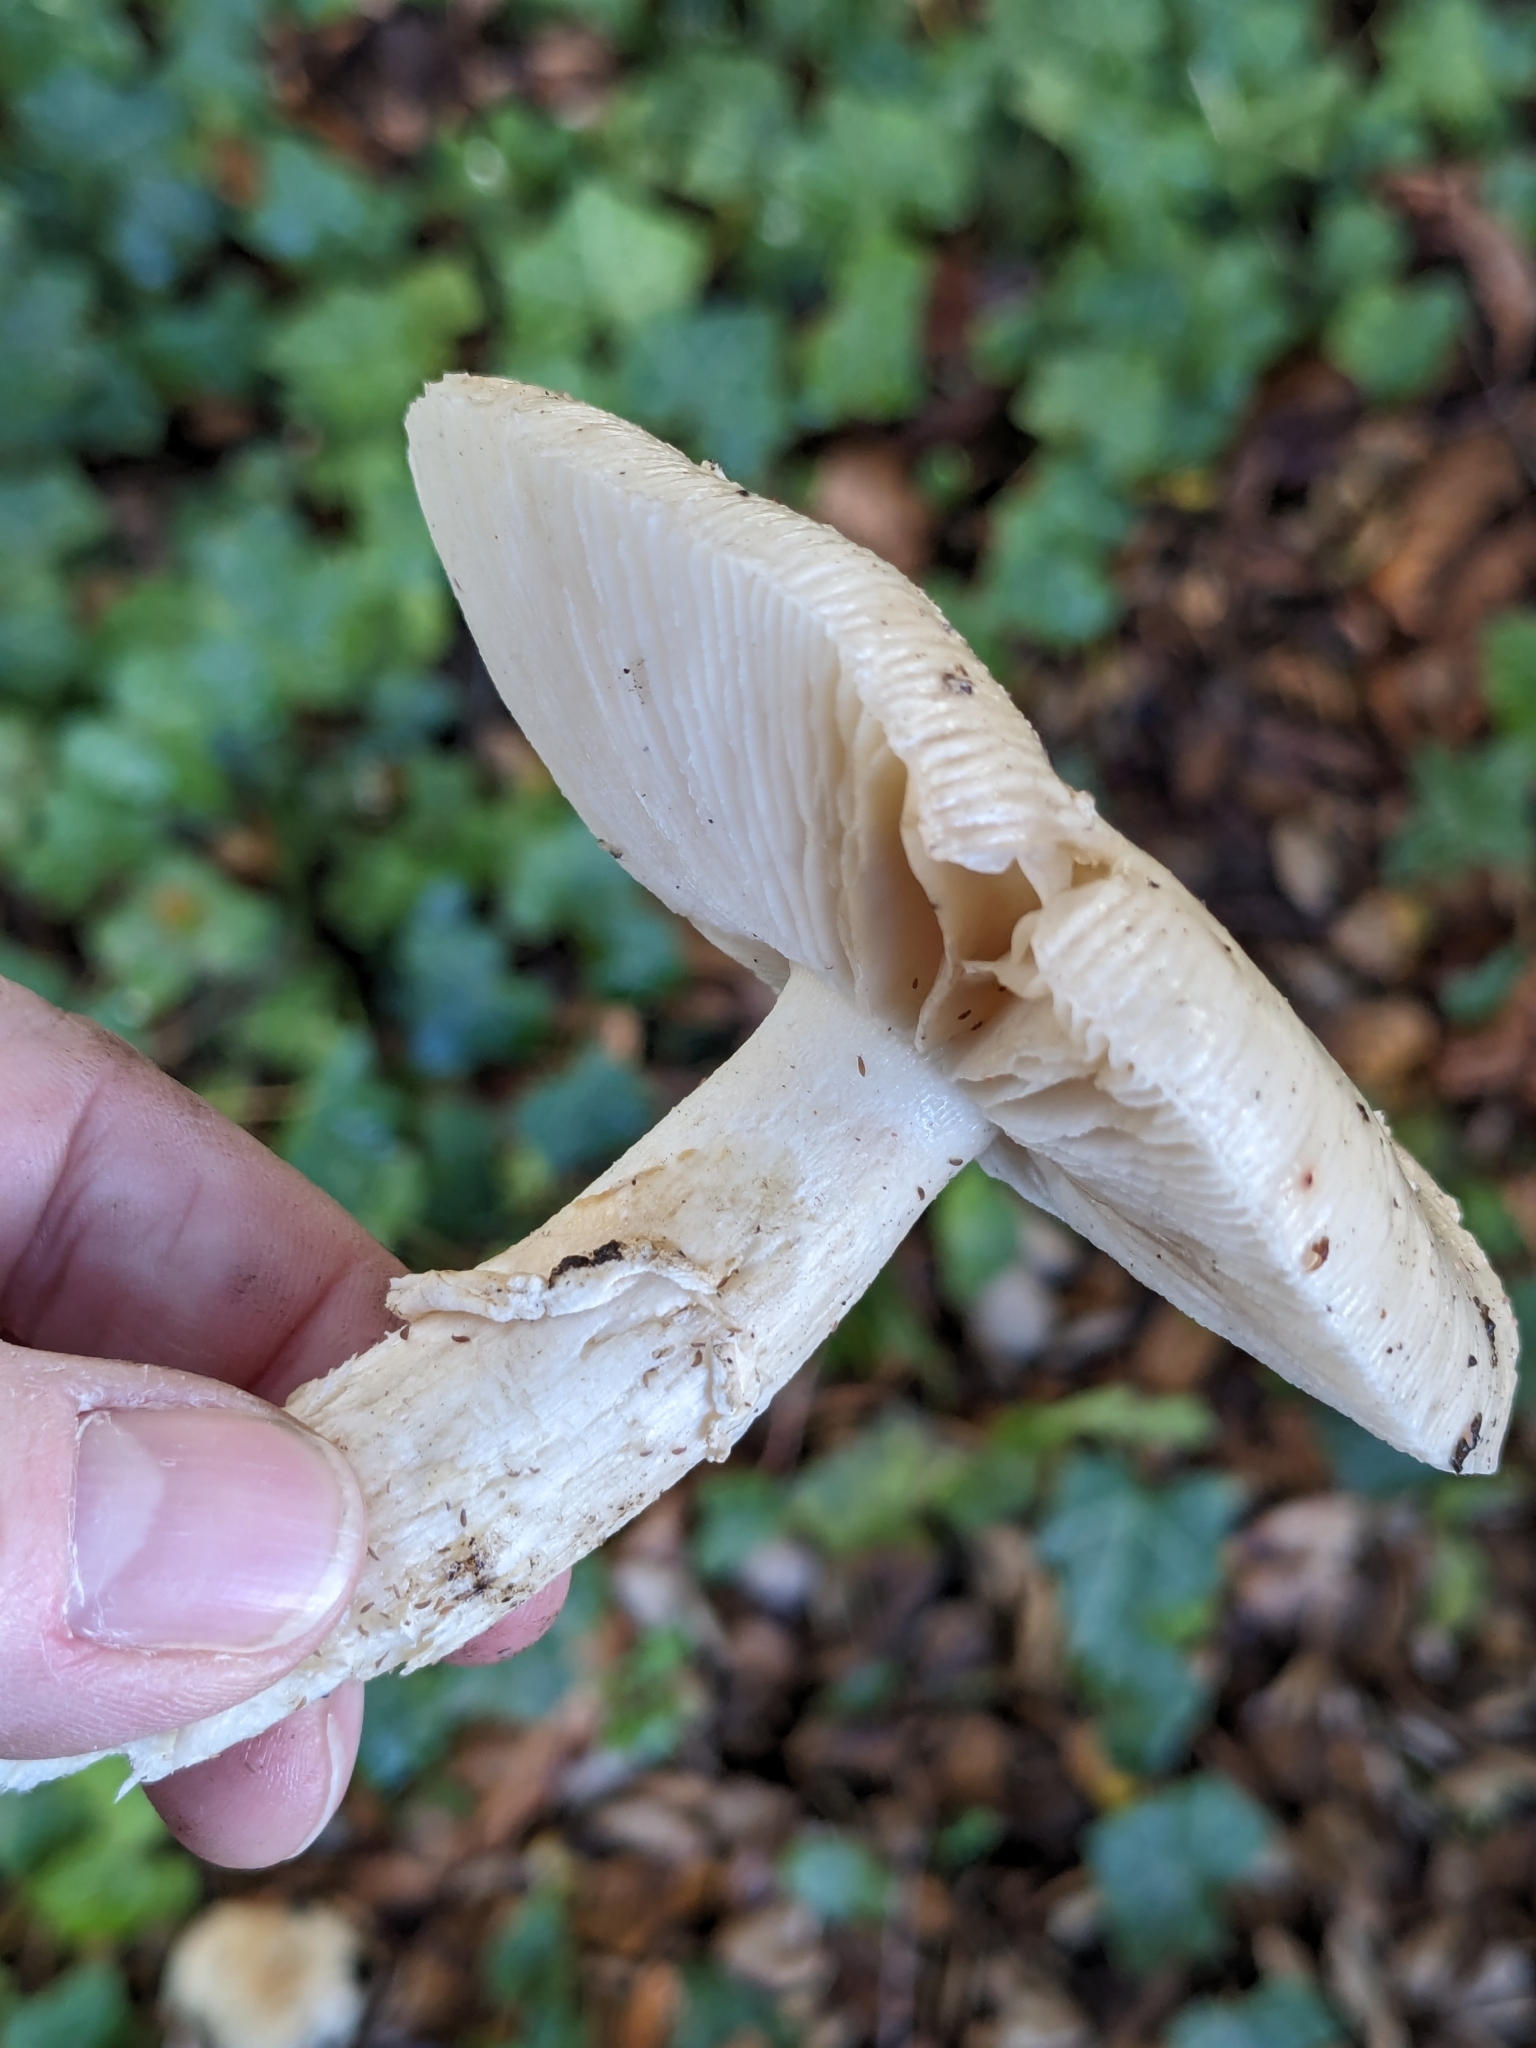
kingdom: Fungi
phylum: Basidiomycota
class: Agaricomycetes
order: Agaricales
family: Amanitaceae
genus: Amanita
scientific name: Amanita pantherinoides
